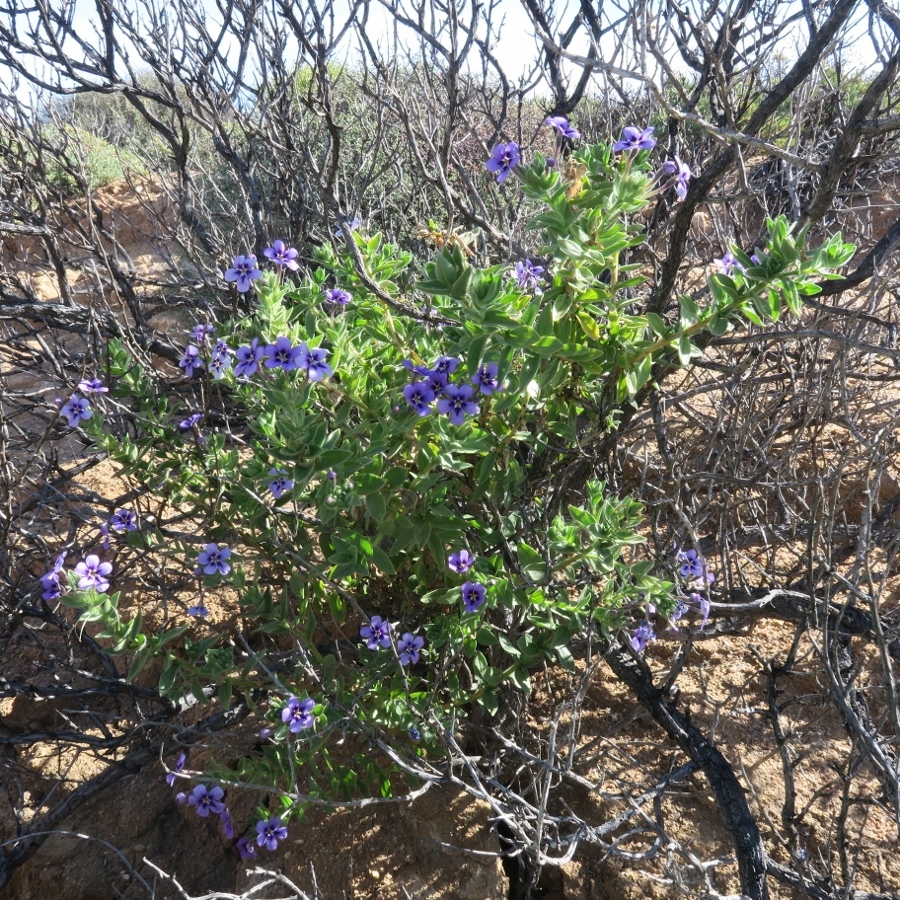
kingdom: Plantae
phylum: Tracheophyta
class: Magnoliopsida
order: Lamiales
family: Scrophulariaceae
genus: Jamesbrittenia
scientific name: Jamesbrittenia fruticosa
